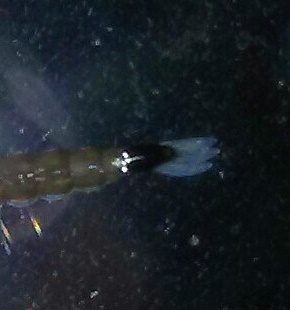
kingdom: Animalia
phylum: Arthropoda
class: Insecta
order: Diptera
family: Culicidae
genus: Aedes
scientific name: Aedes albopictus
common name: Tiger mosquito
